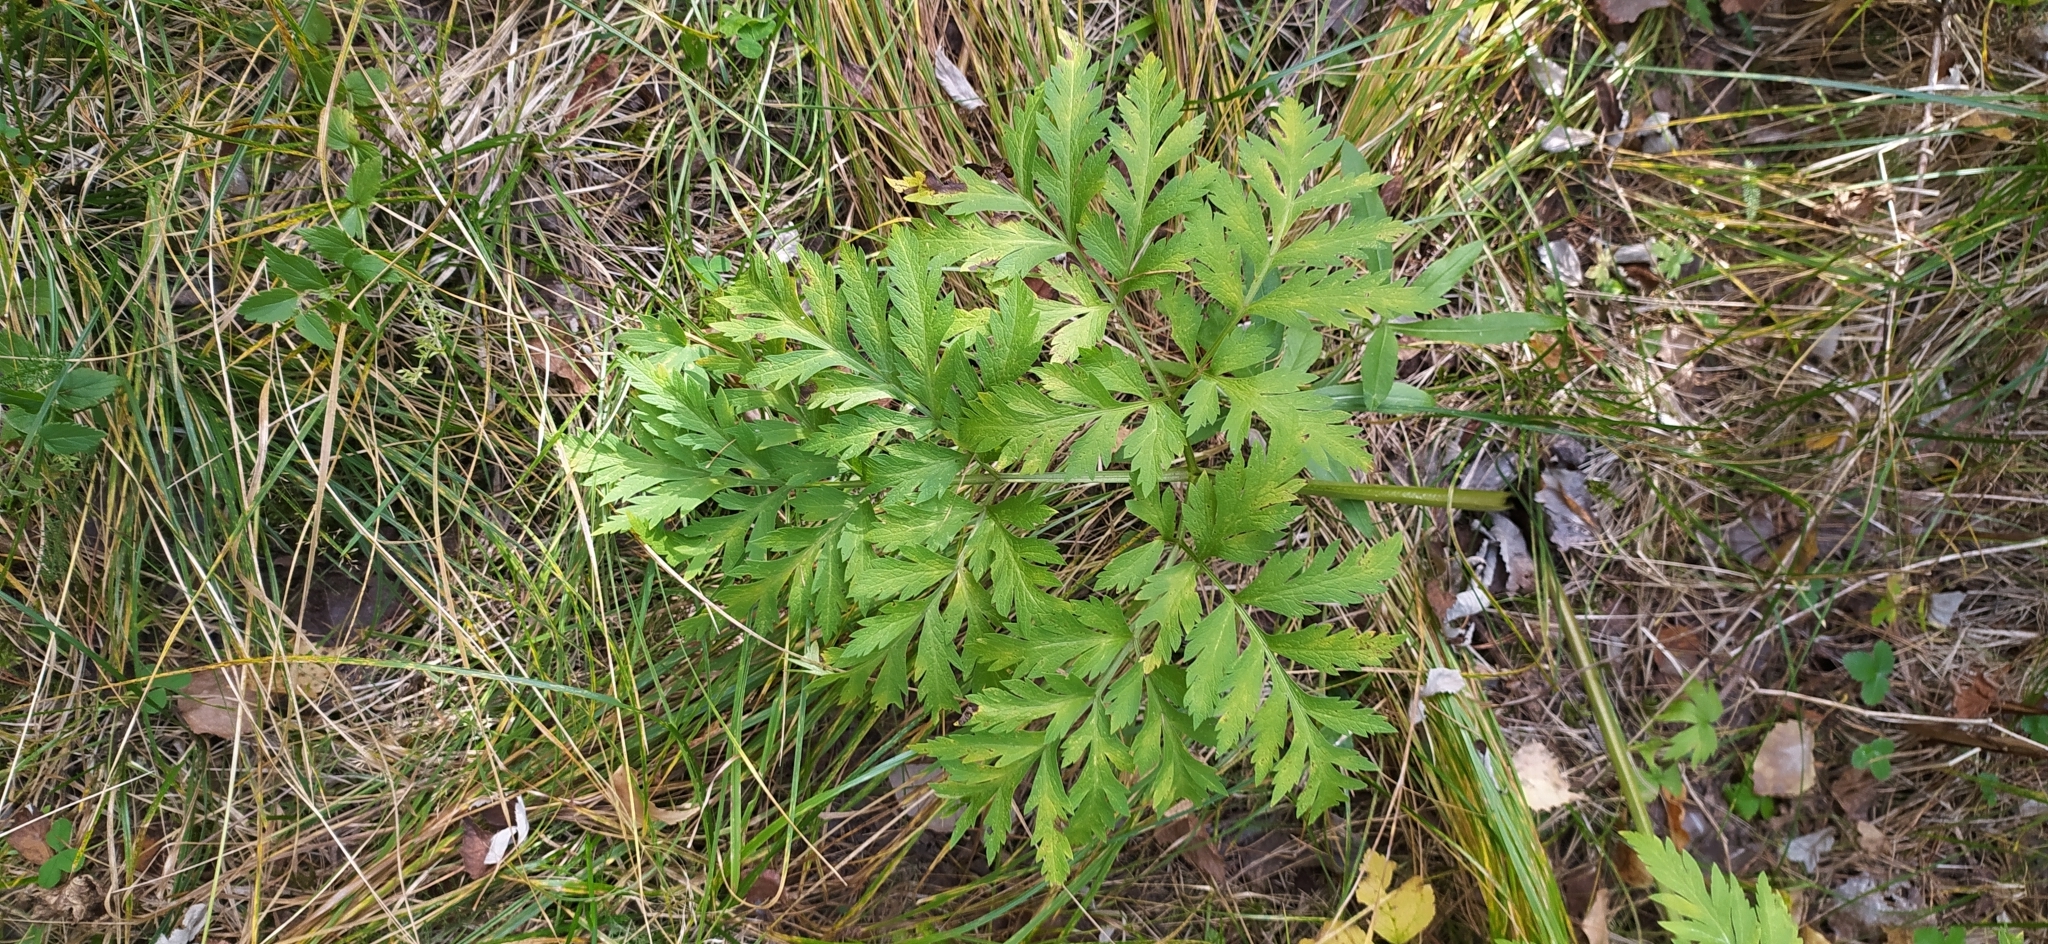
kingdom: Plantae
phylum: Tracheophyta
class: Magnoliopsida
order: Apiales
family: Apiaceae
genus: Pleurospermum
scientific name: Pleurospermum uralense
